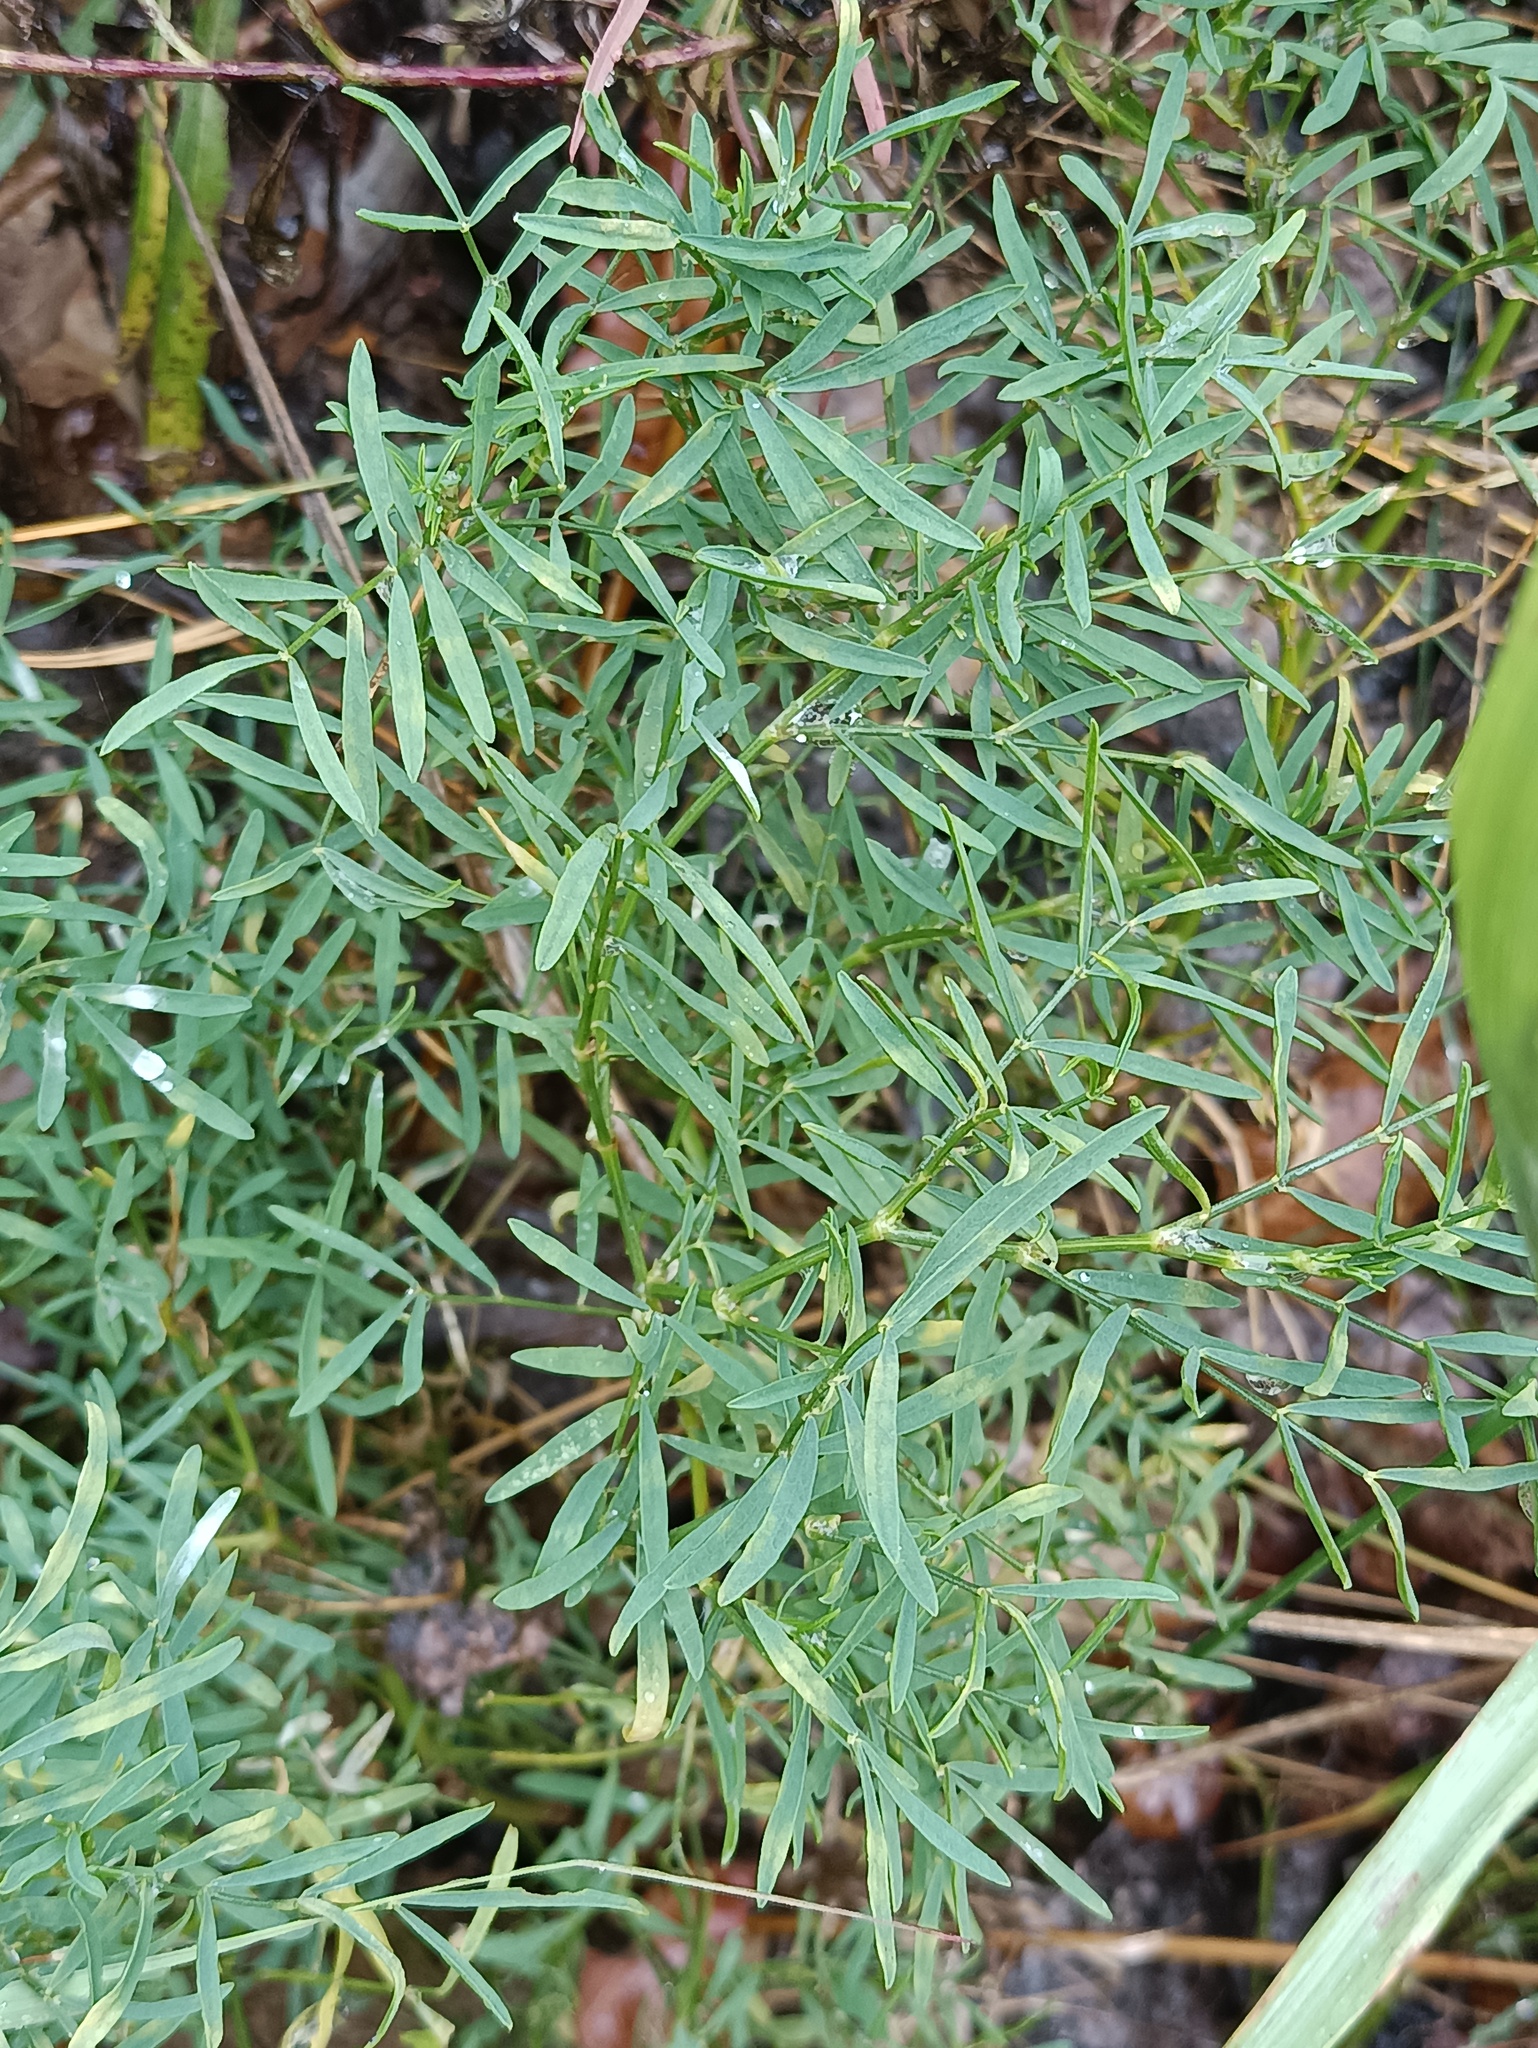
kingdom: Plantae
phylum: Tracheophyta
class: Magnoliopsida
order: Fabales
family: Fabaceae
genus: Astragalus
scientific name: Astragalus arenarius
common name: Arenarious milk-vetch
